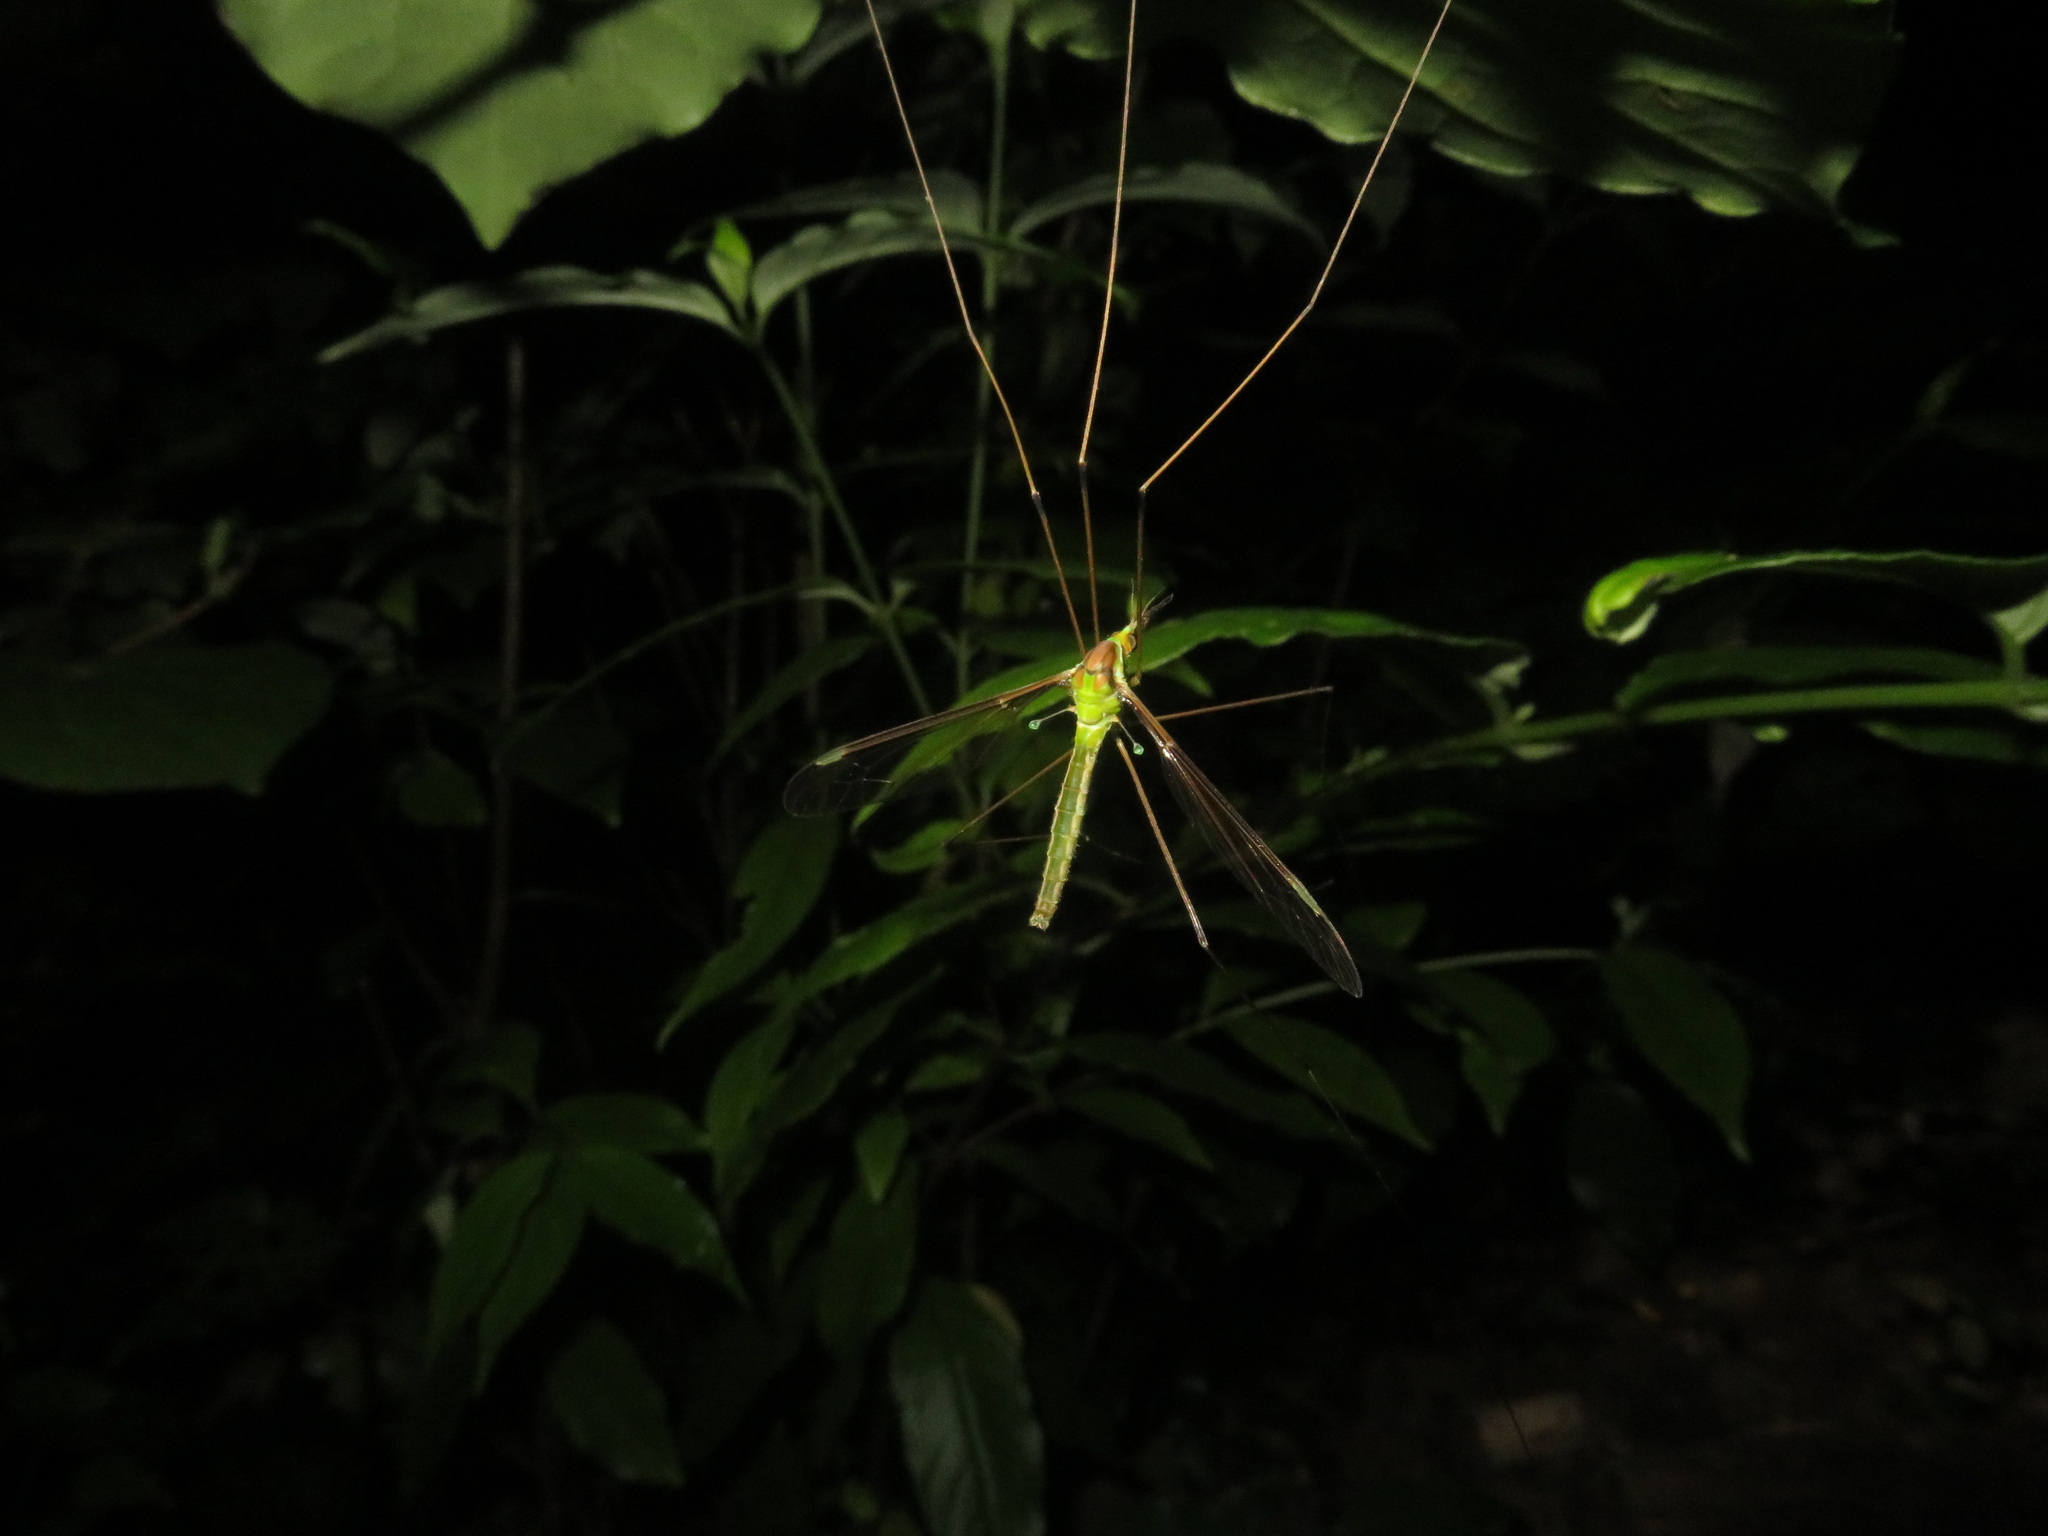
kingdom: Animalia
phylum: Arthropoda
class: Insecta
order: Diptera
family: Tipulidae
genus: Leptotarsus
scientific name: Leptotarsus viridis
